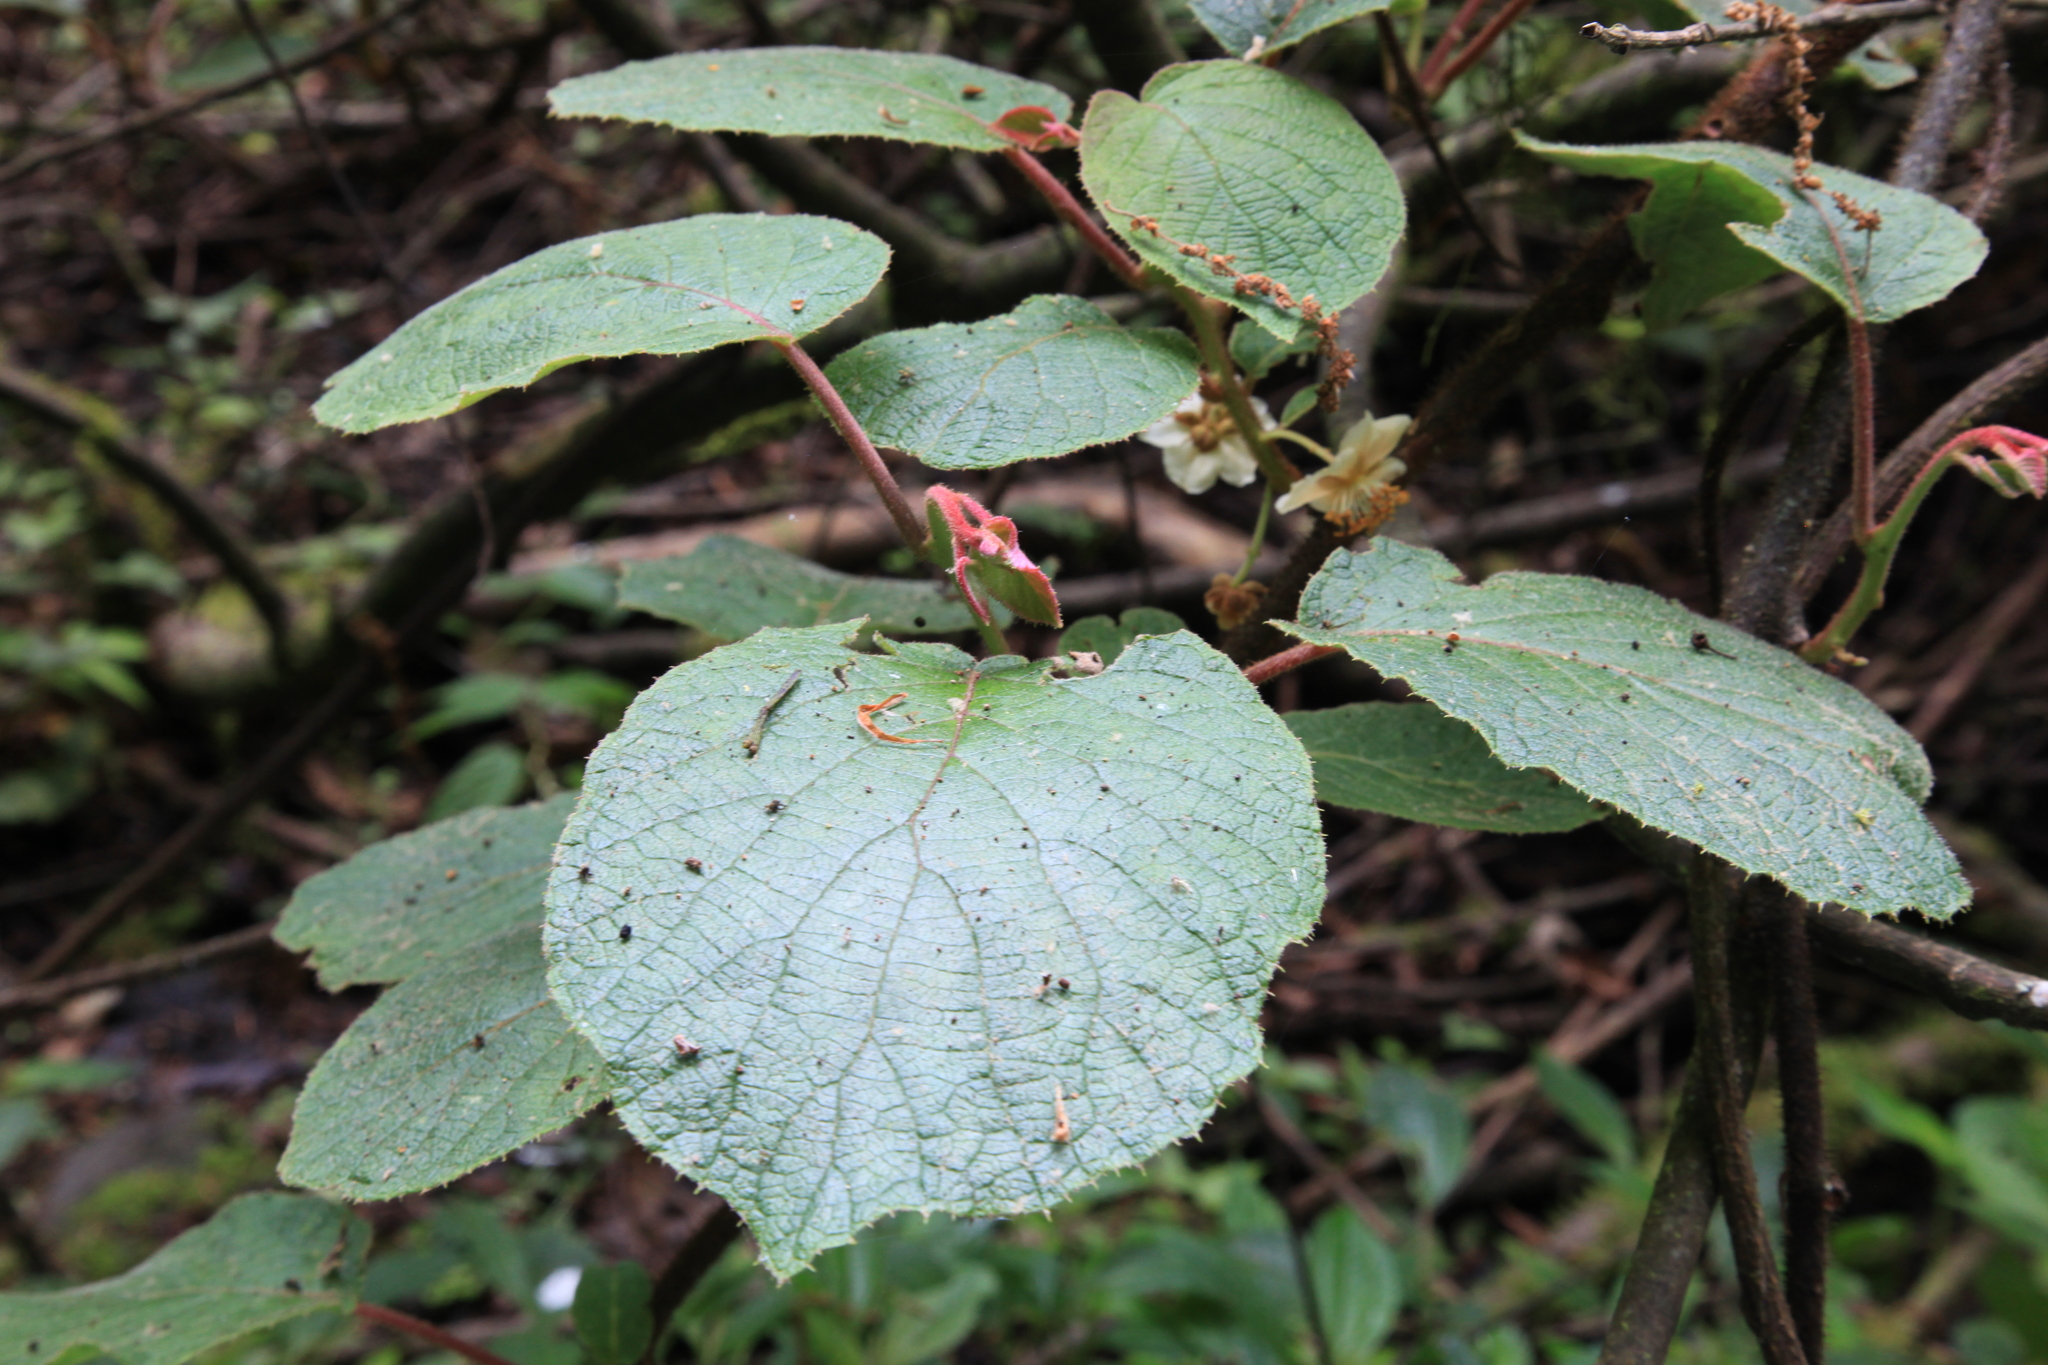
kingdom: Plantae
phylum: Tracheophyta
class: Magnoliopsida
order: Ericales
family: Actinidiaceae
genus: Actinidia
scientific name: Actinidia chinensis
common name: Kiwi
